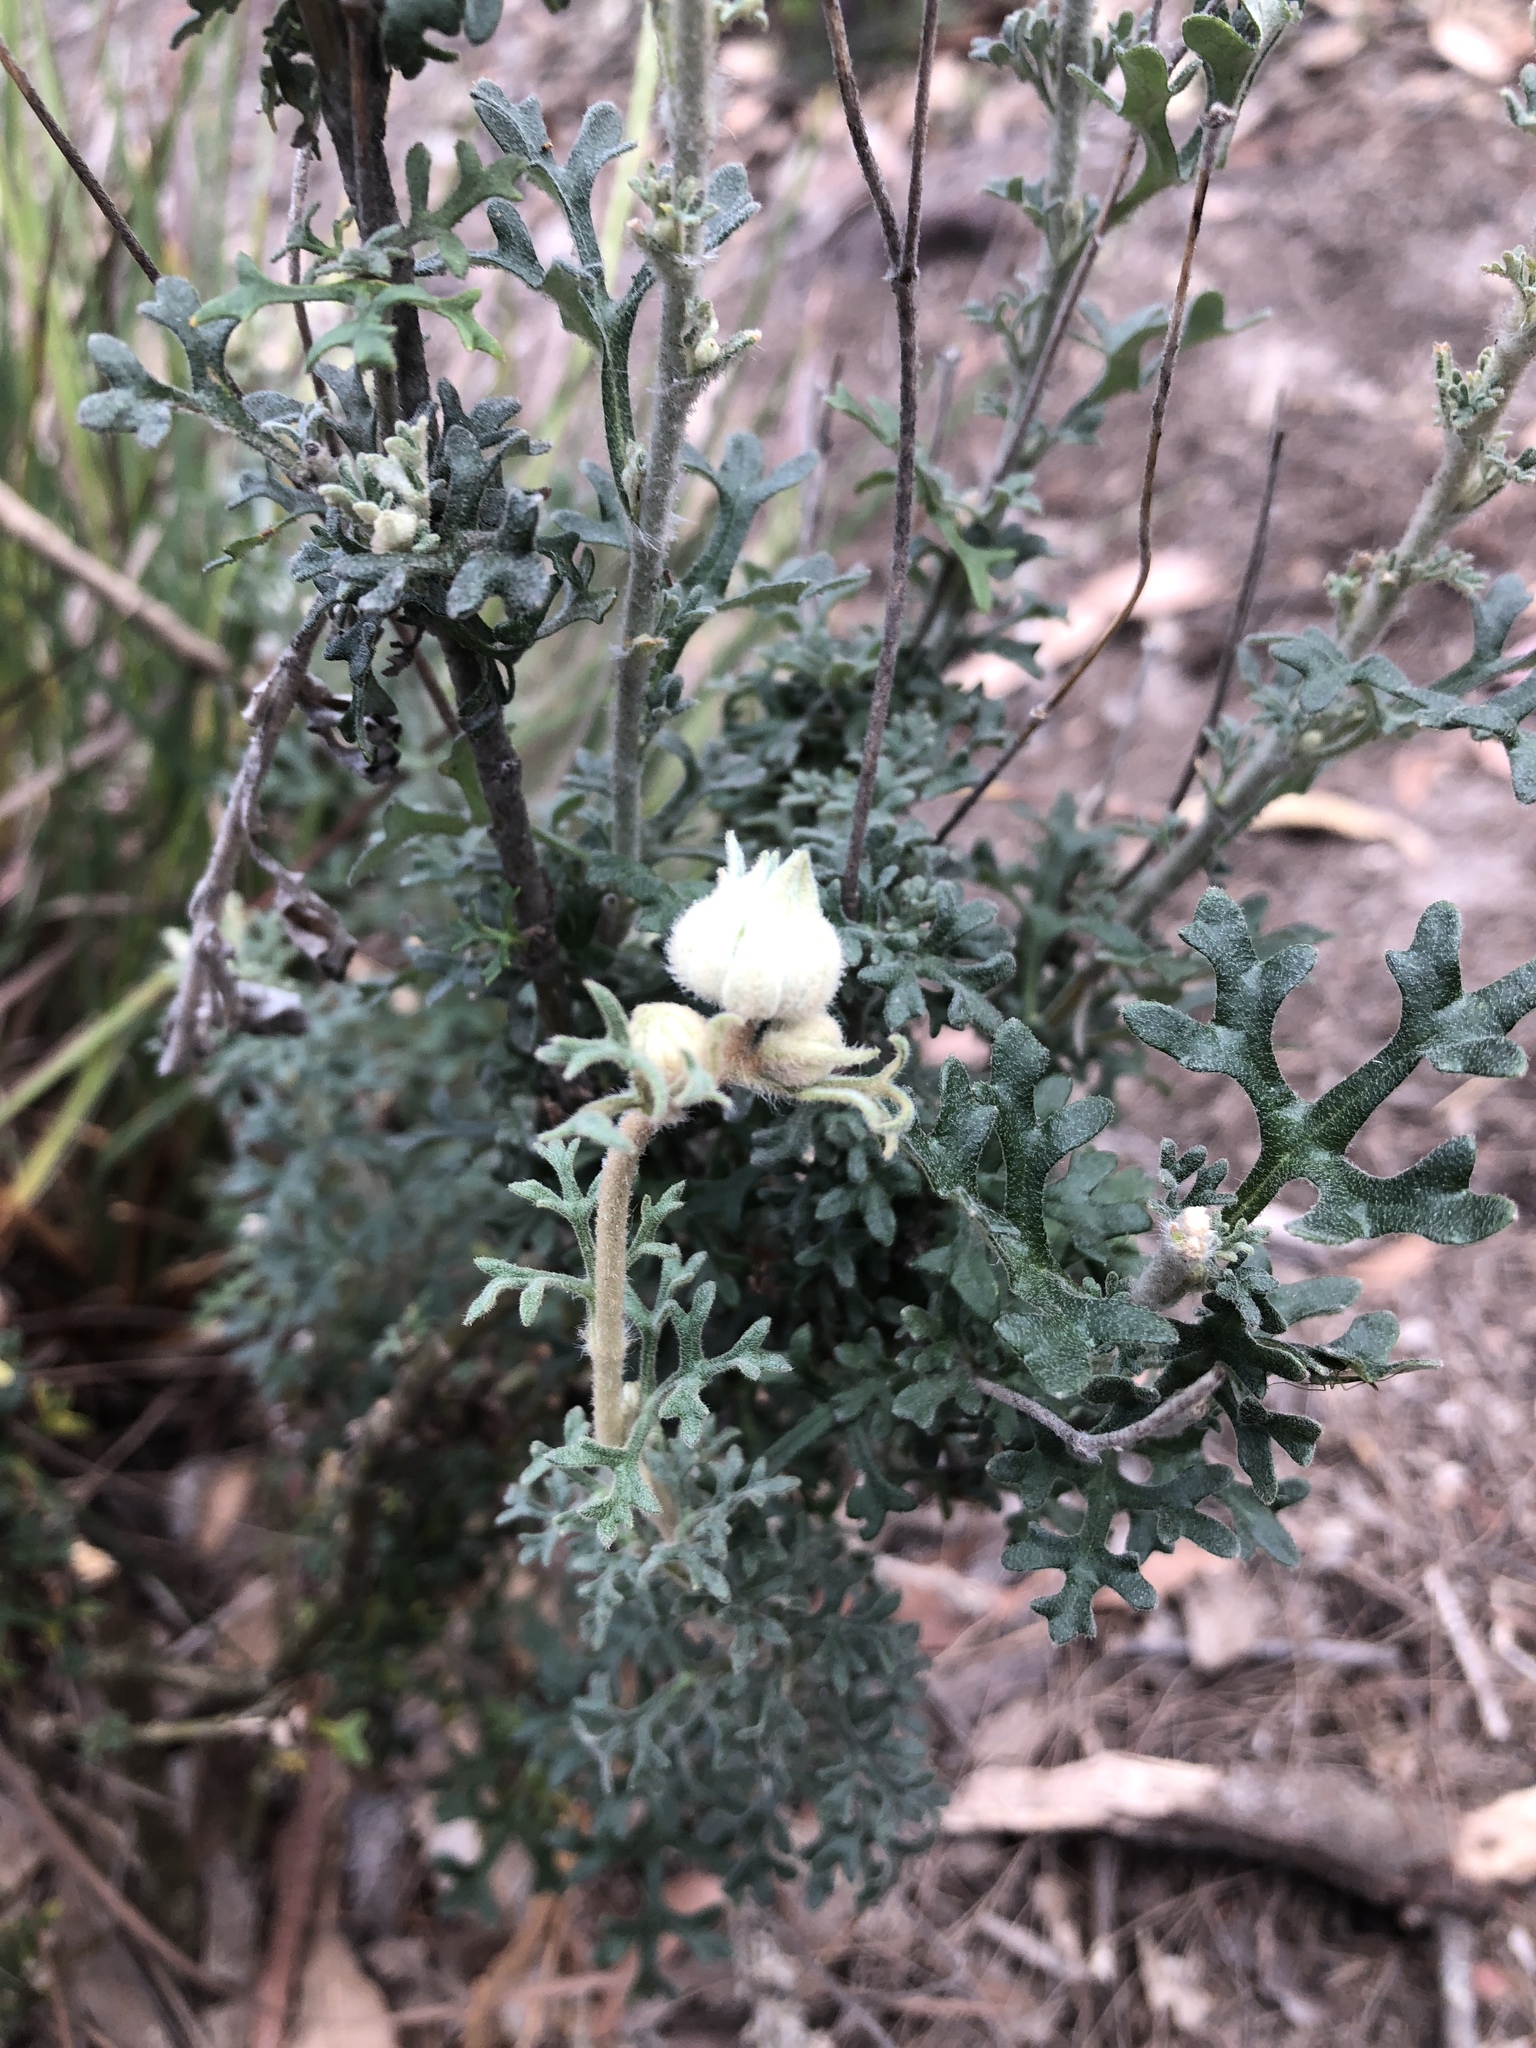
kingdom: Plantae
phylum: Tracheophyta
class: Magnoliopsida
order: Apiales
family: Apiaceae
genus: Actinotus
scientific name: Actinotus helianthi
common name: Flannel-flower
